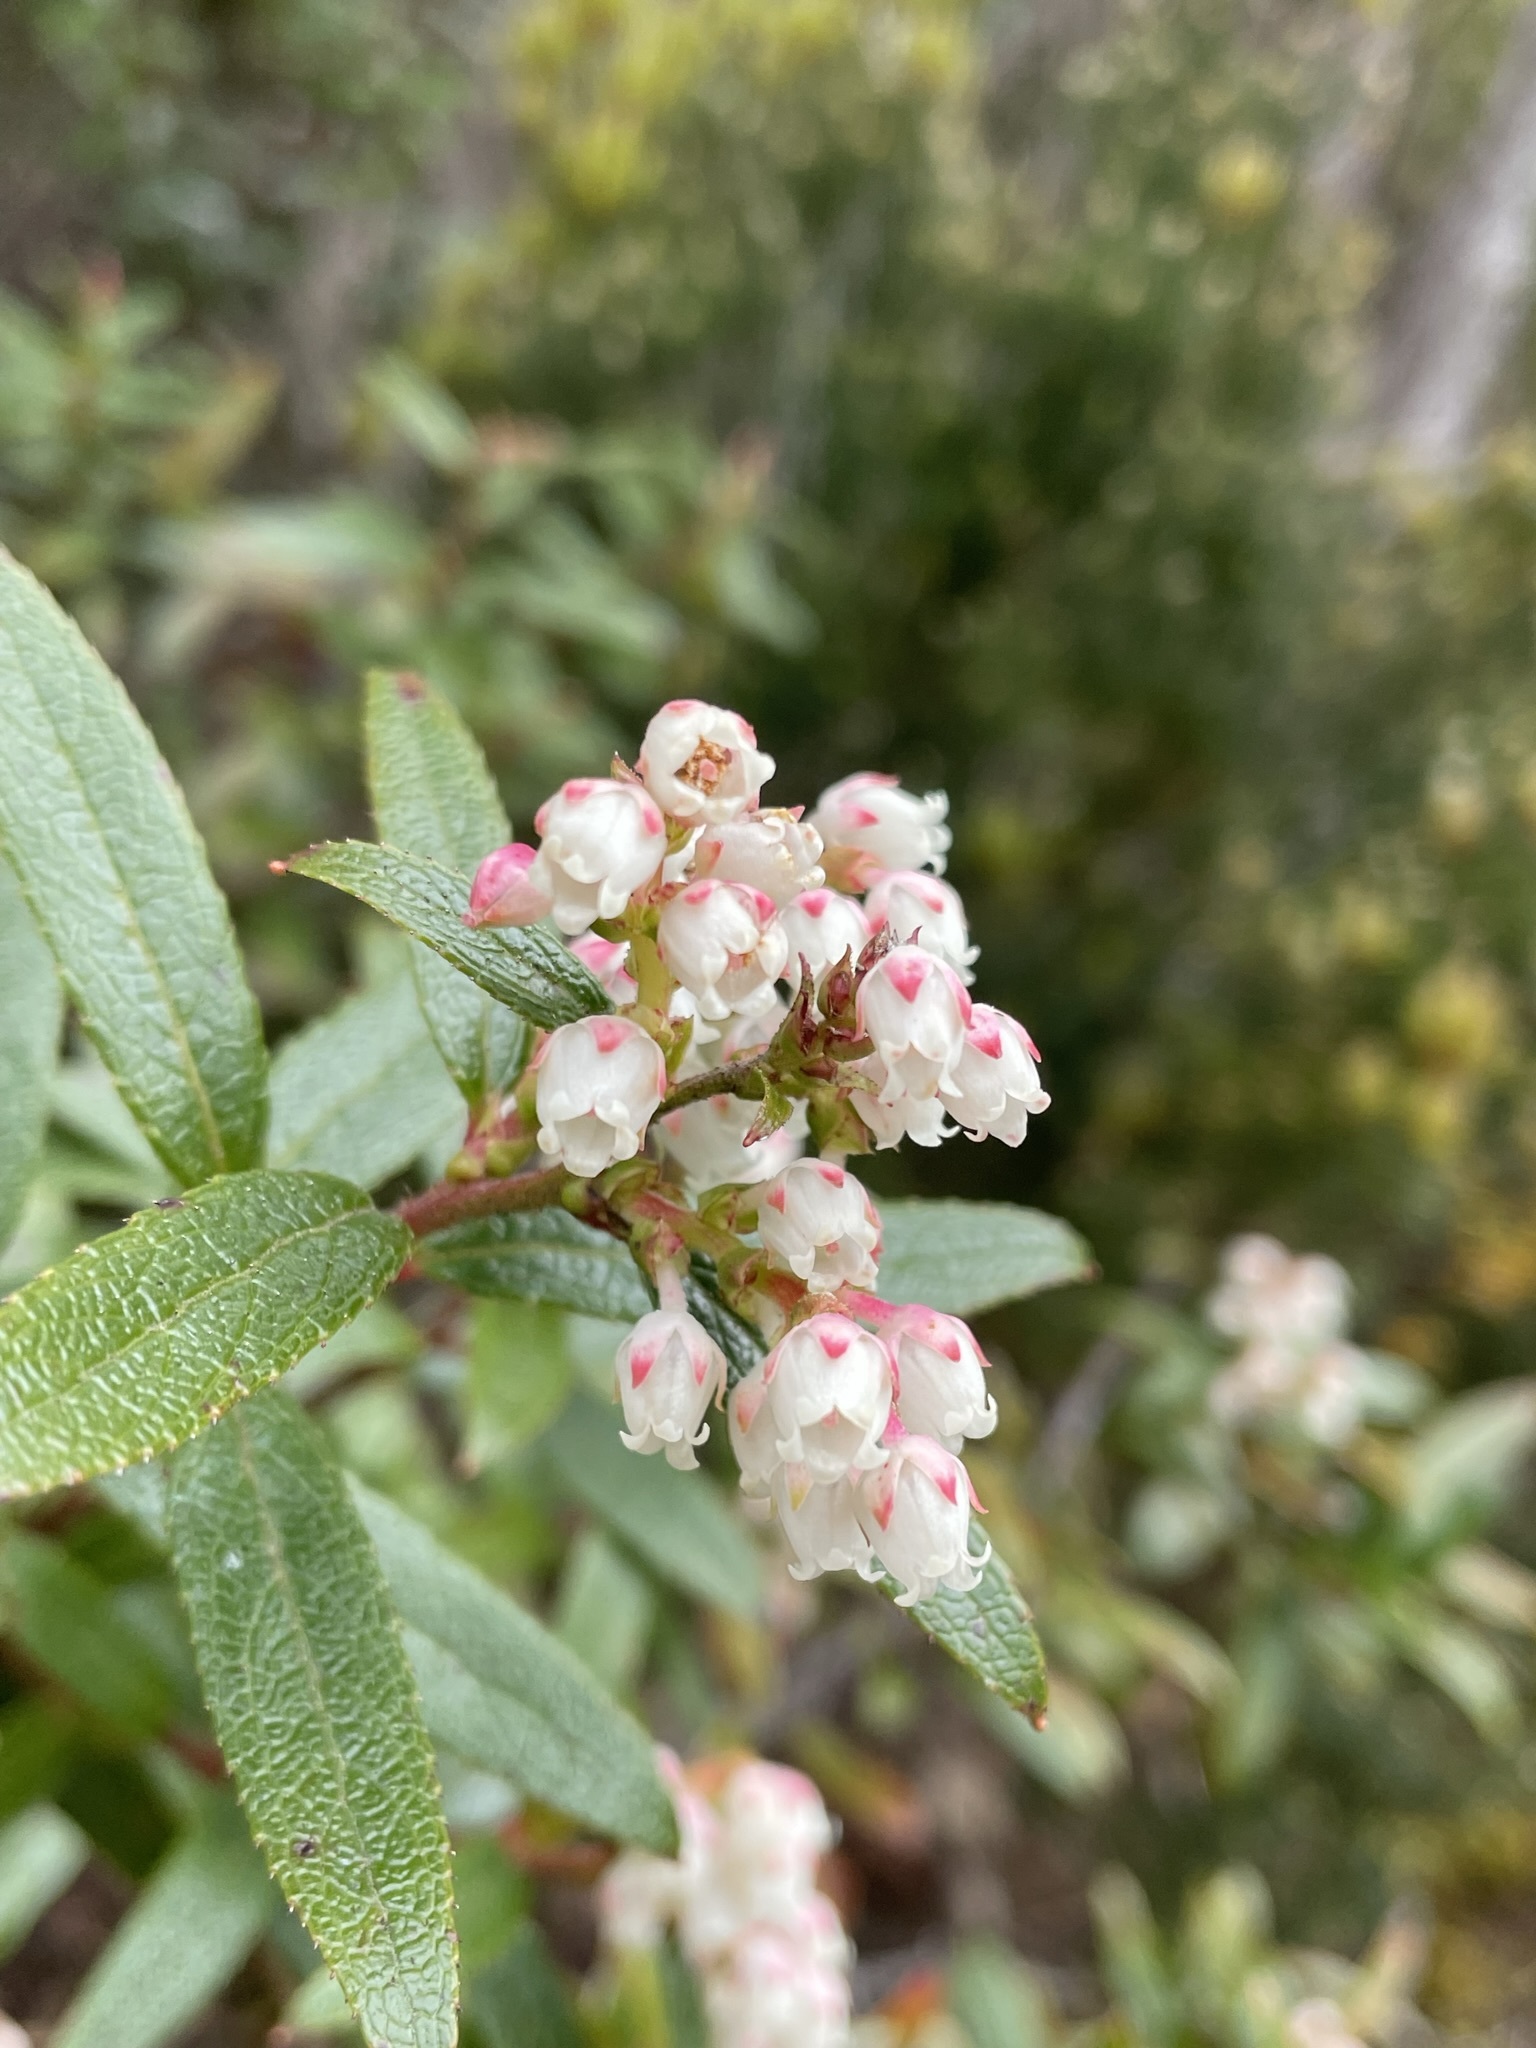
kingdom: Plantae
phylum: Tracheophyta
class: Magnoliopsida
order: Ericales
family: Ericaceae
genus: Gaultheria
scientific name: Gaultheria hispida
